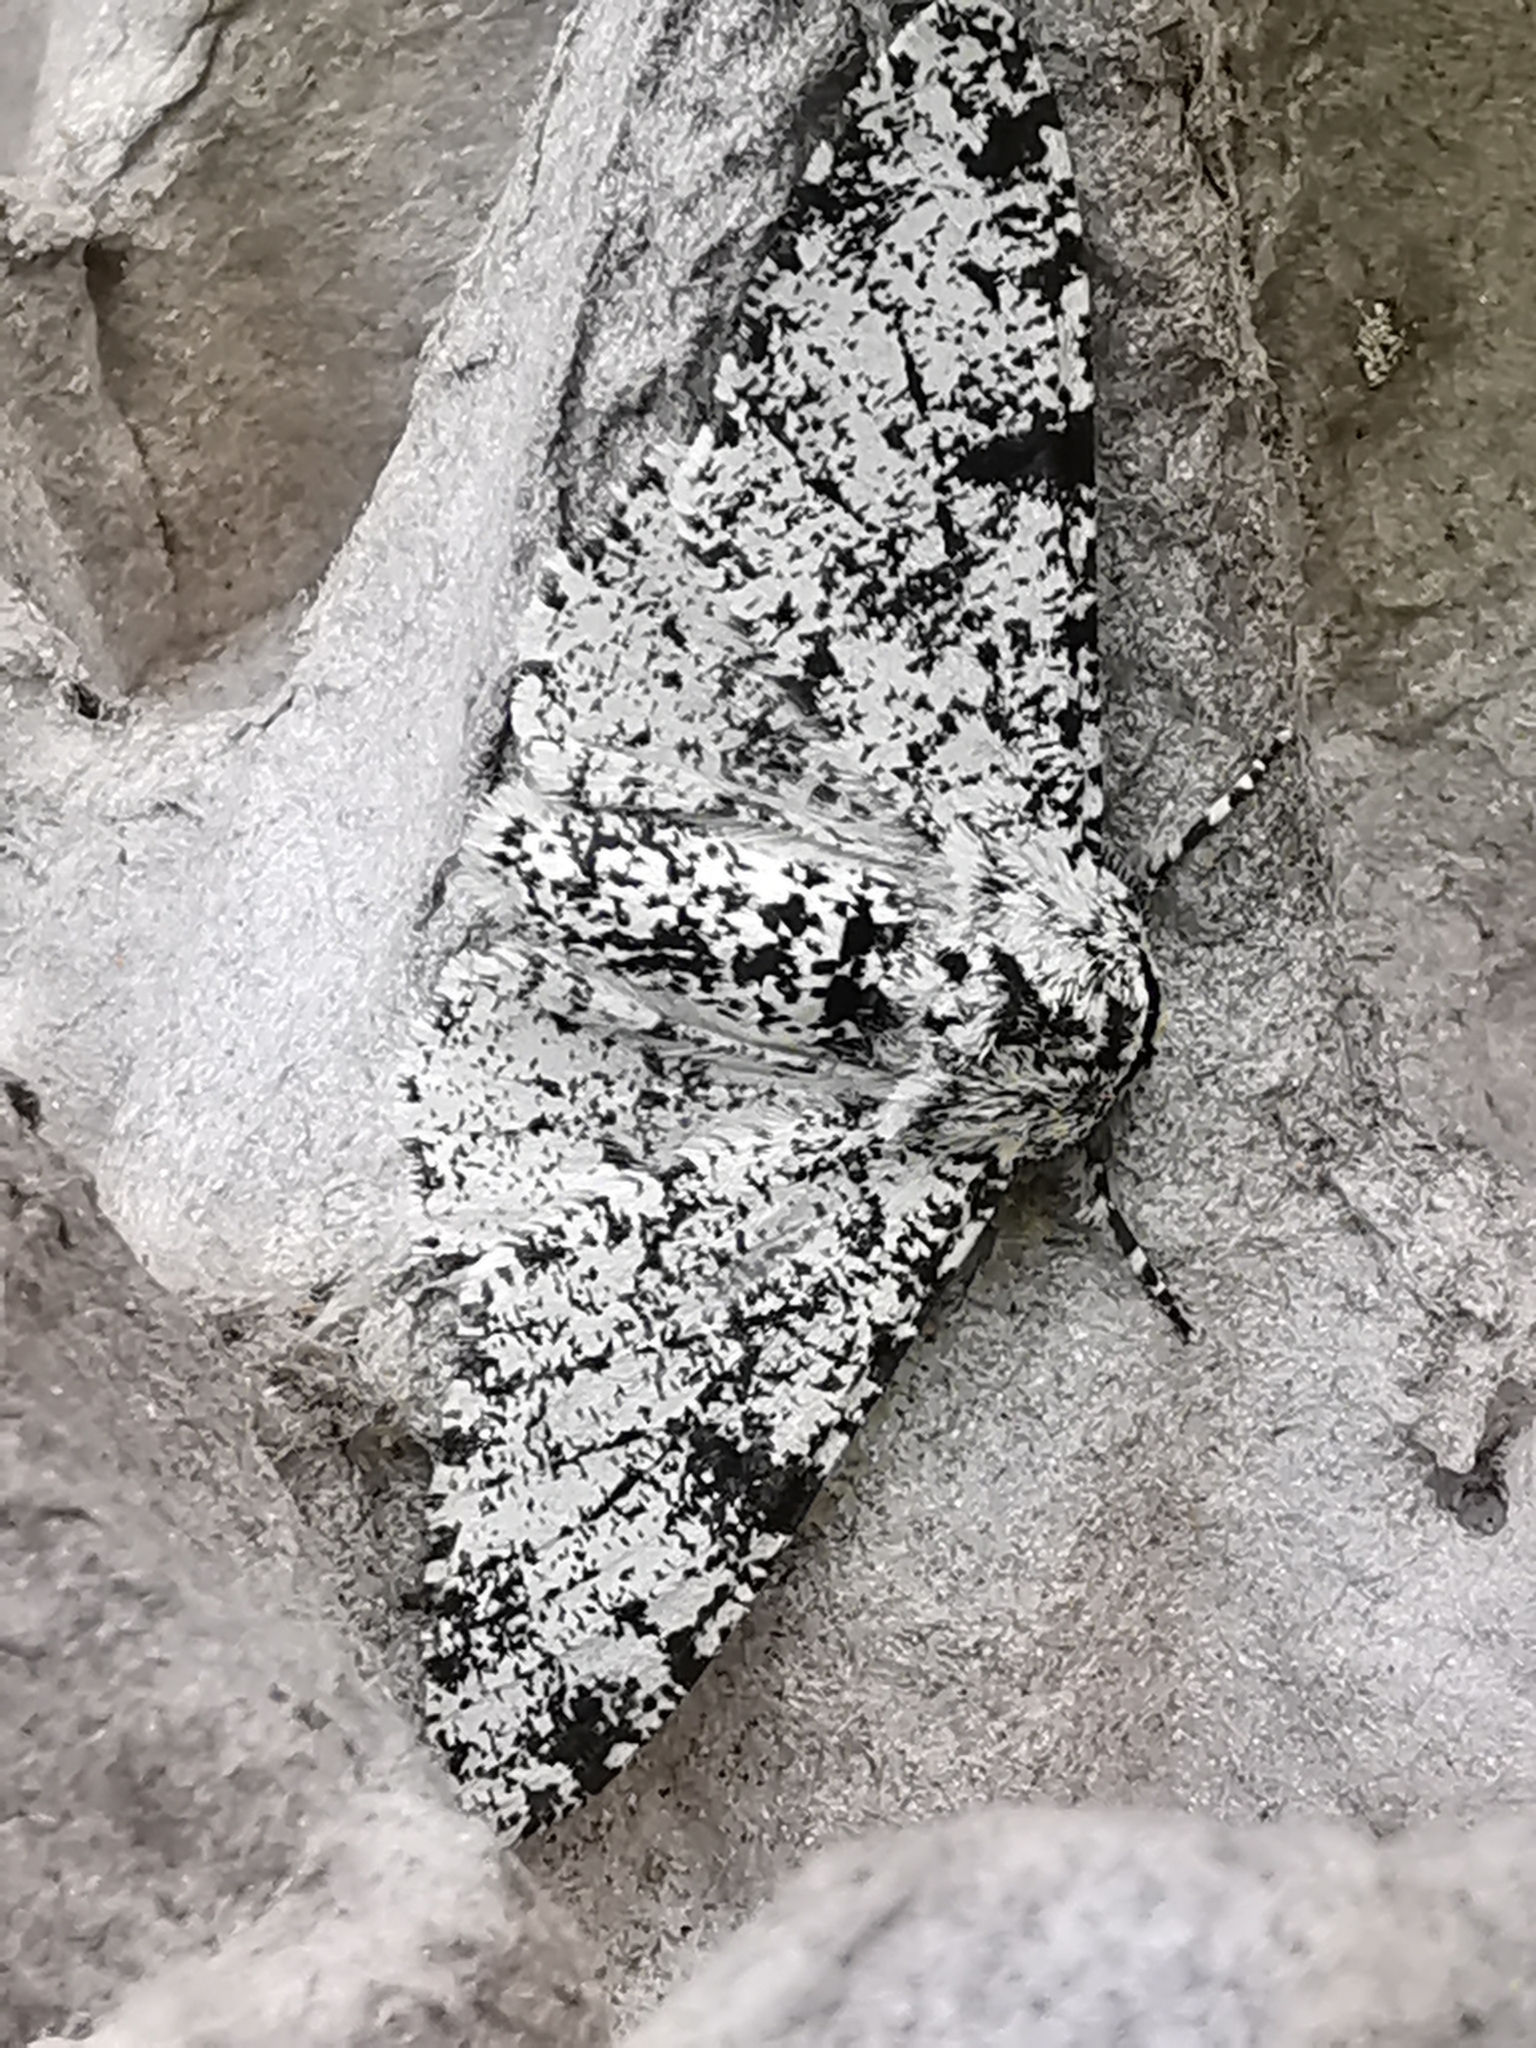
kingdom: Animalia
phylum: Arthropoda
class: Insecta
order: Lepidoptera
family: Geometridae
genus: Biston
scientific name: Biston betularia
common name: Peppered moth
